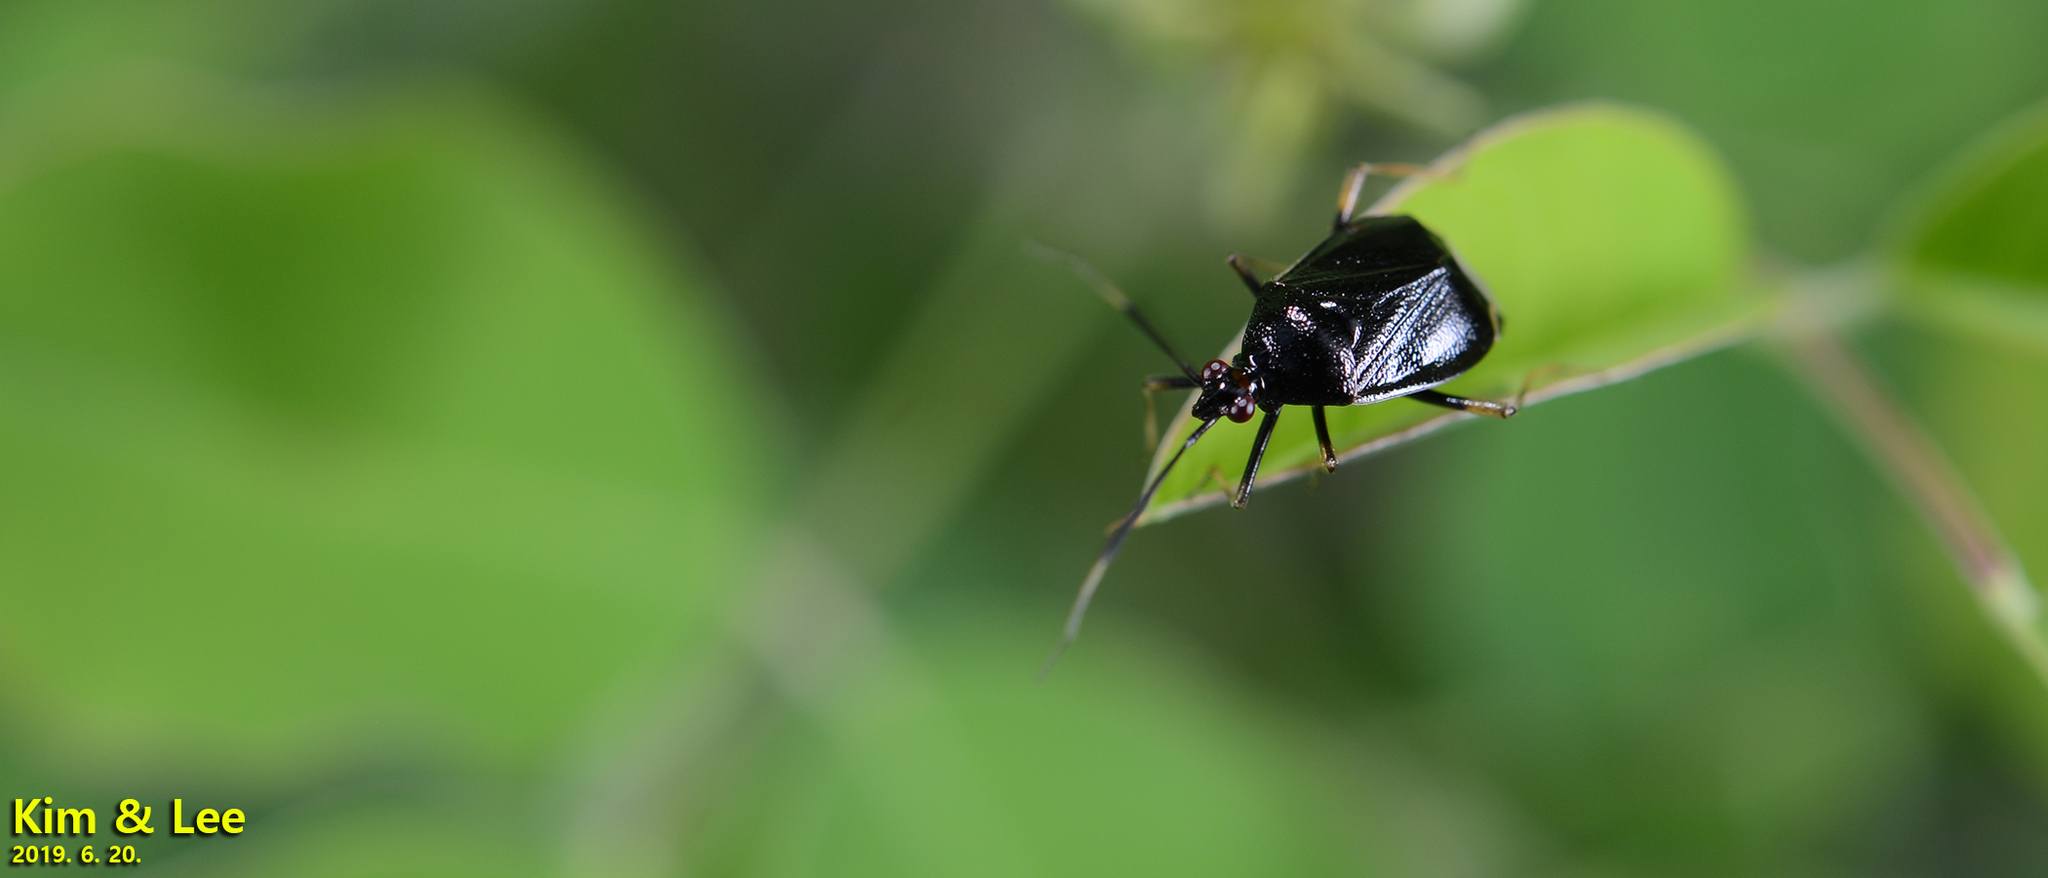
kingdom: Animalia
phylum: Arthropoda
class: Insecta
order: Hemiptera
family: Miridae
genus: Deraeocoris
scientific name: Deraeocoris ater
